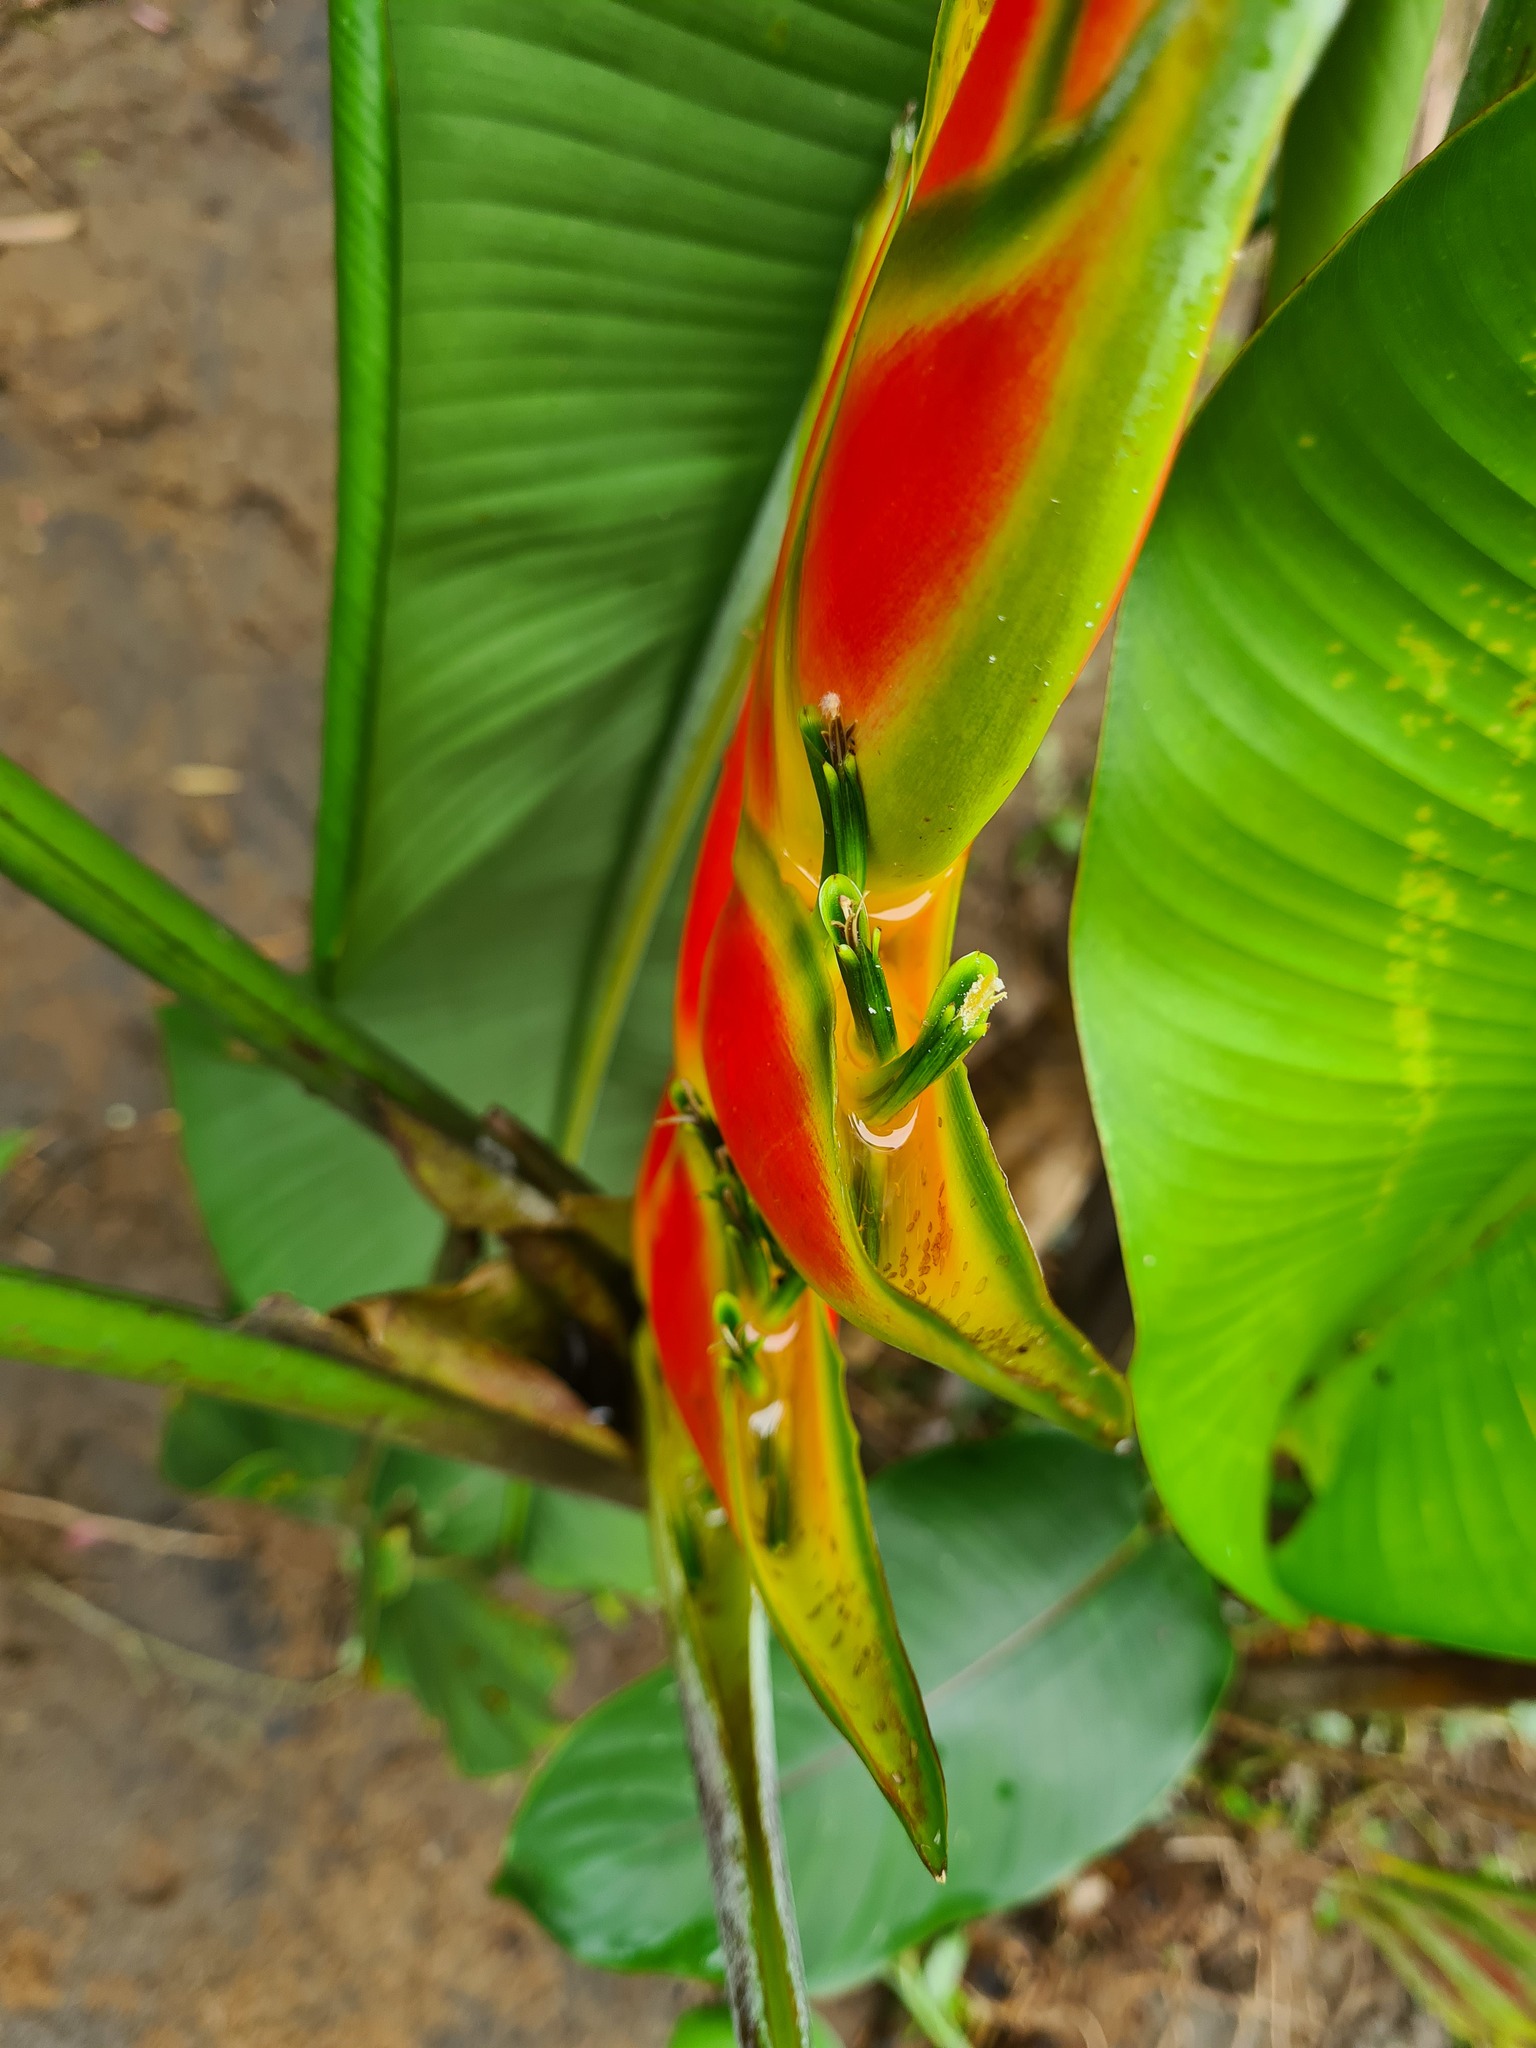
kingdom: Plantae
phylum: Tracheophyta
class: Liliopsida
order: Zingiberales
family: Heliconiaceae
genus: Heliconia
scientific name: Heliconia wagneriana
